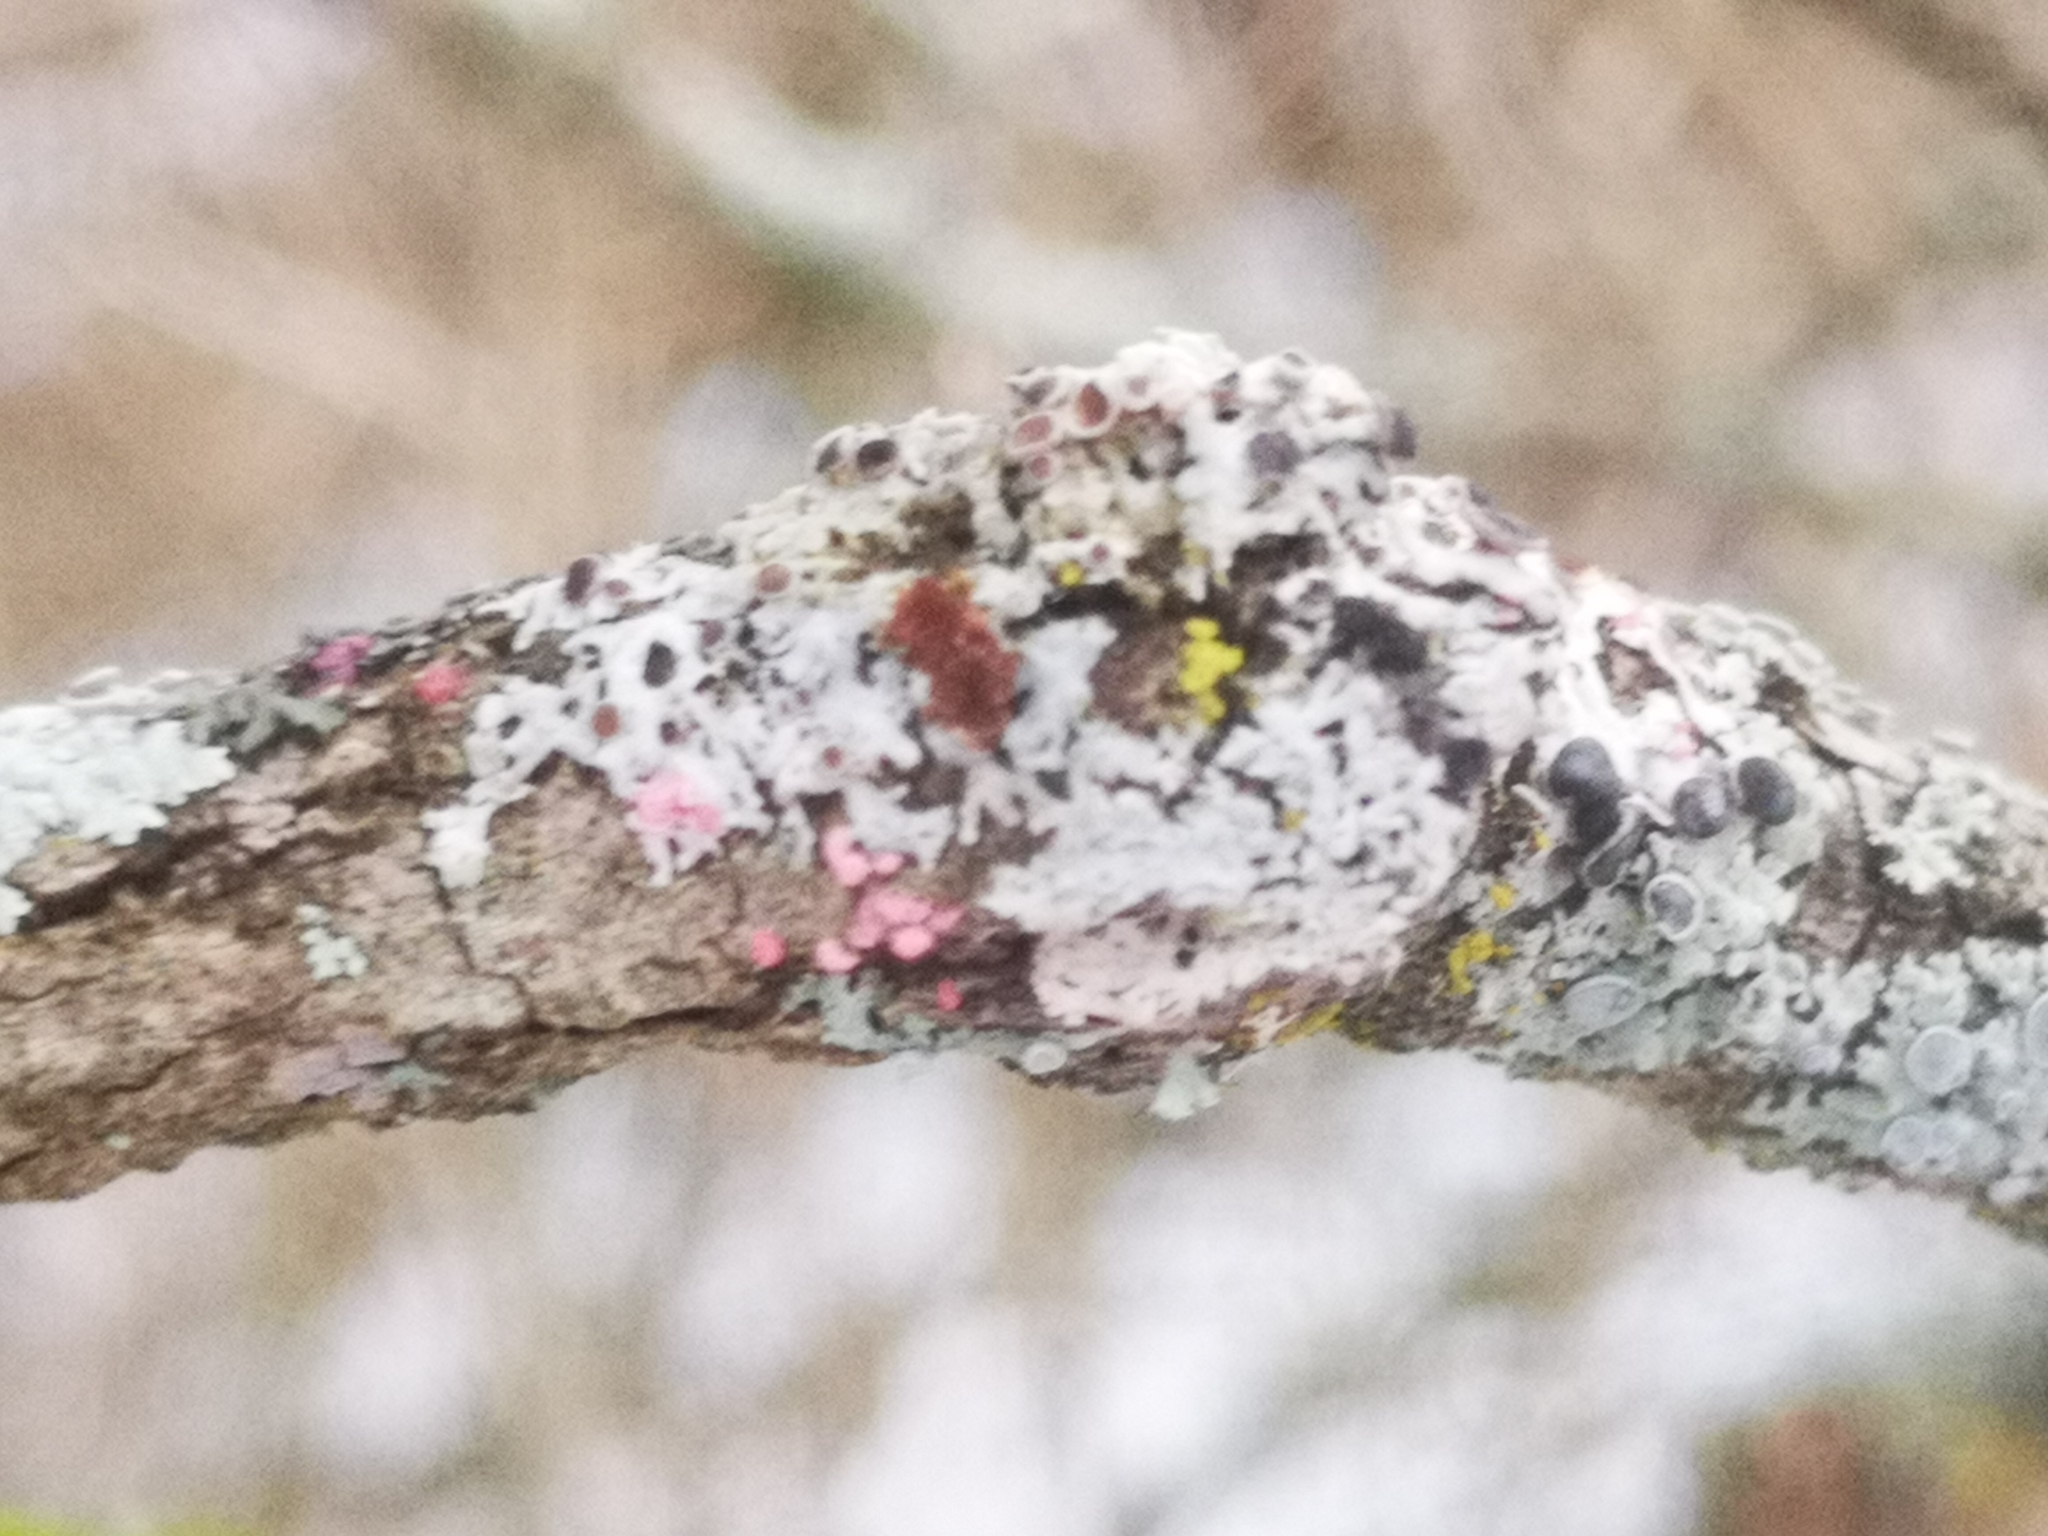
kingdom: Fungi
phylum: Ascomycota
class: Sordariomycetes
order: Hypocreales
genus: Illosporiopsis
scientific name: Illosporiopsis christiansenii
